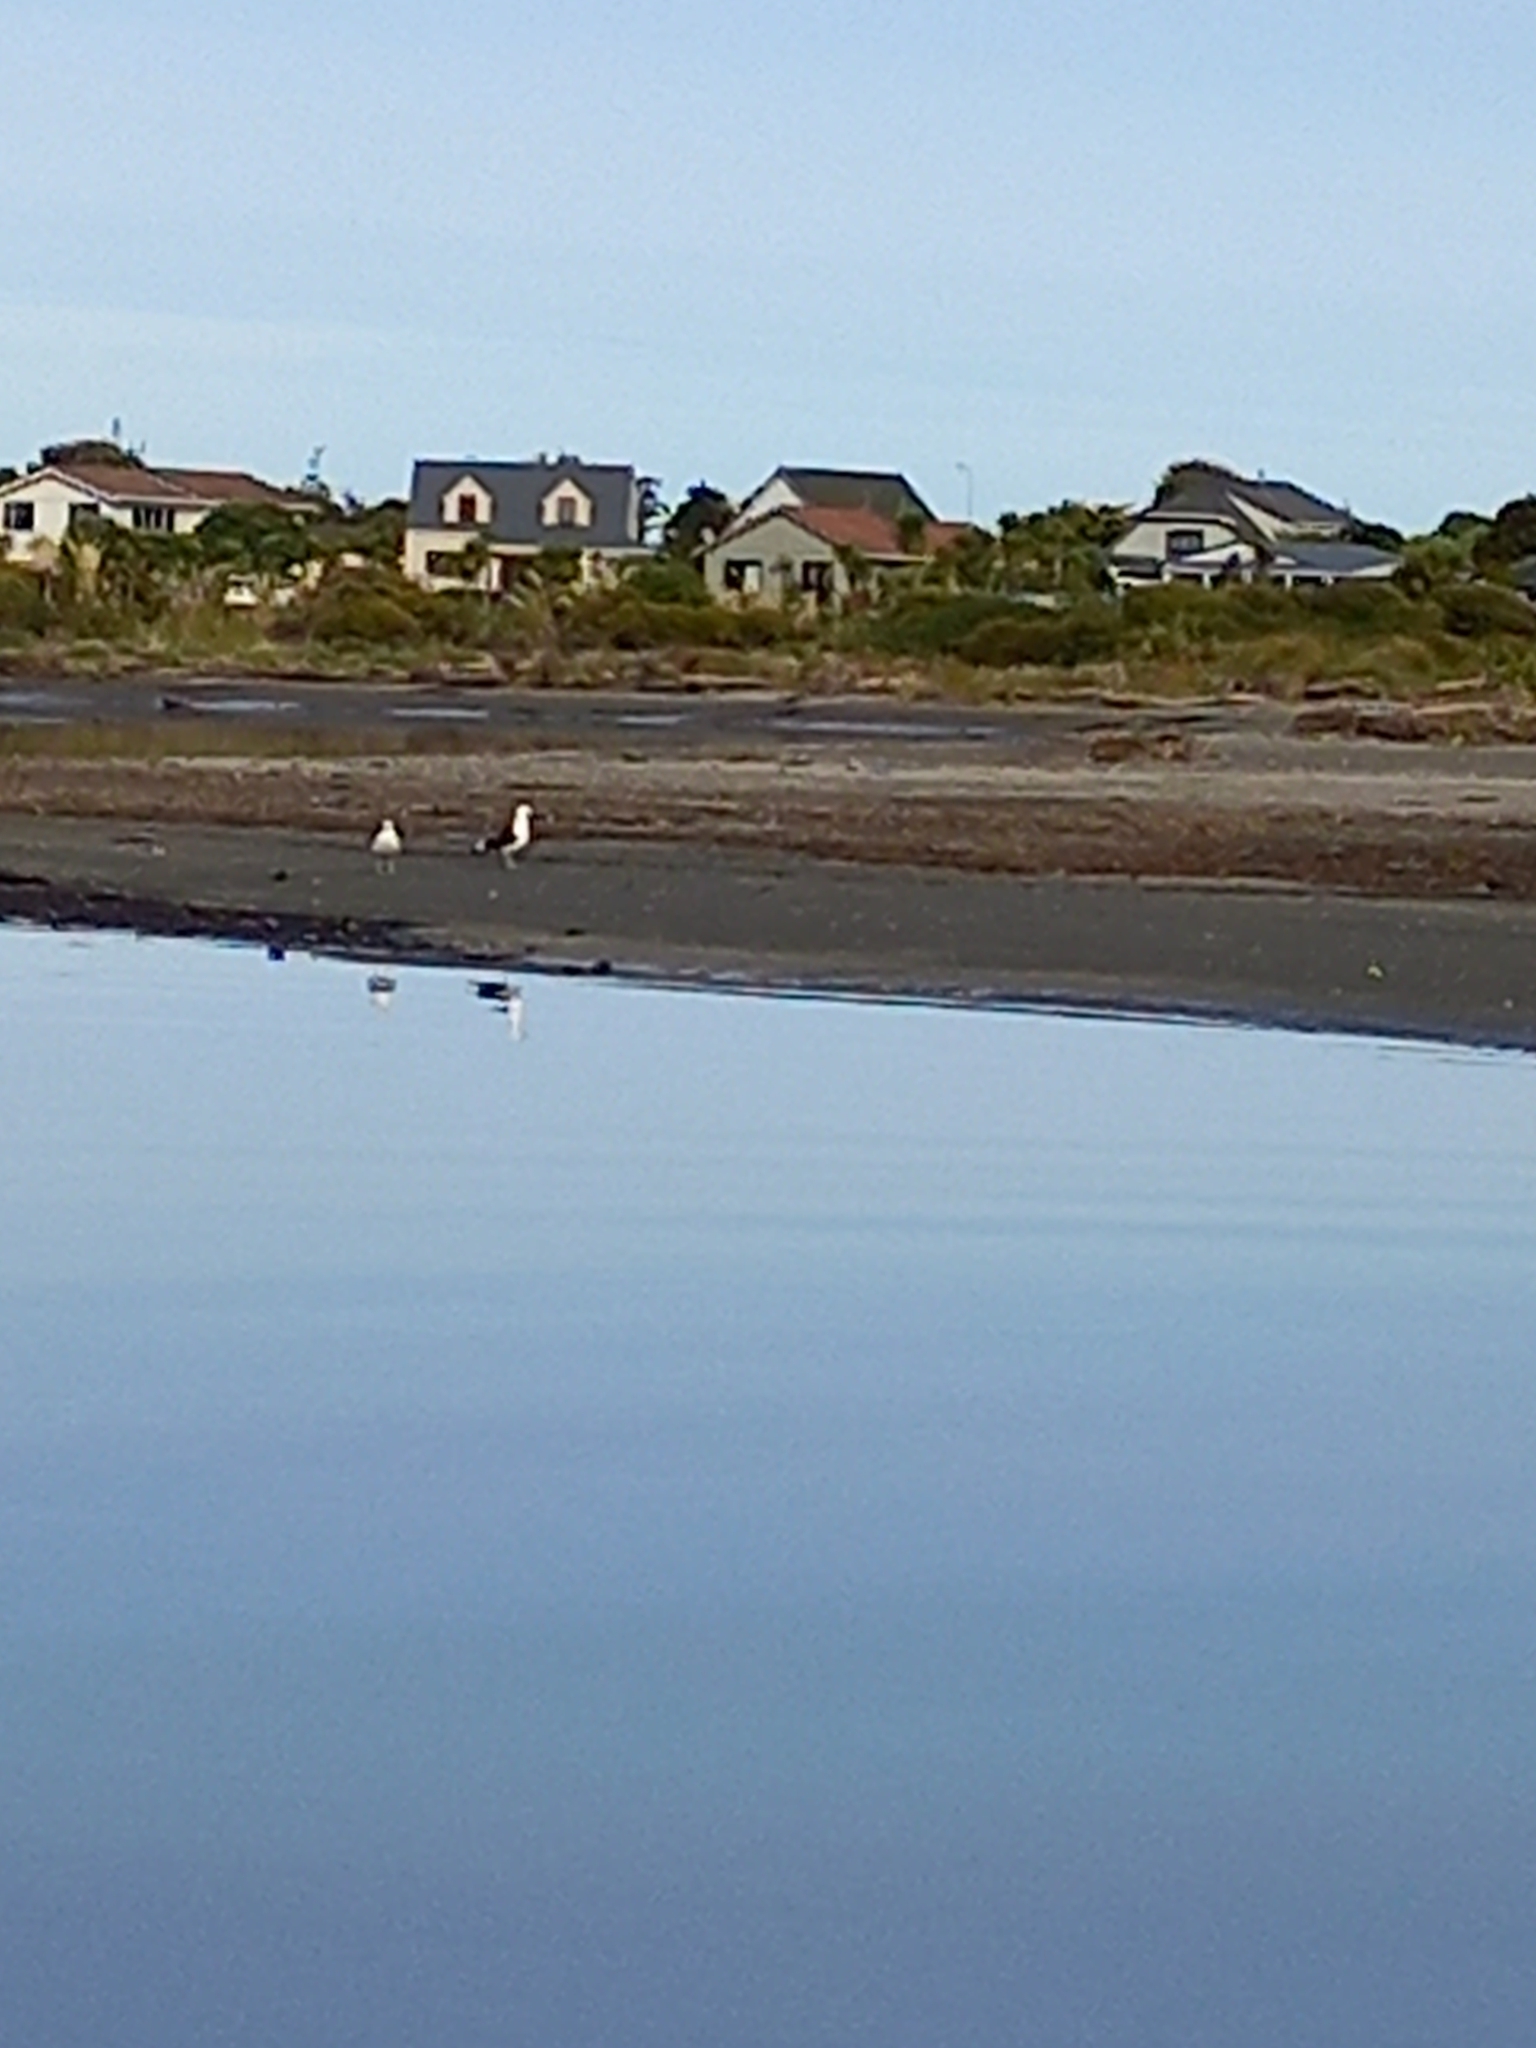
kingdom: Animalia
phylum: Chordata
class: Aves
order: Charadriiformes
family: Laridae
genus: Larus
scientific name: Larus dominicanus
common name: Kelp gull
